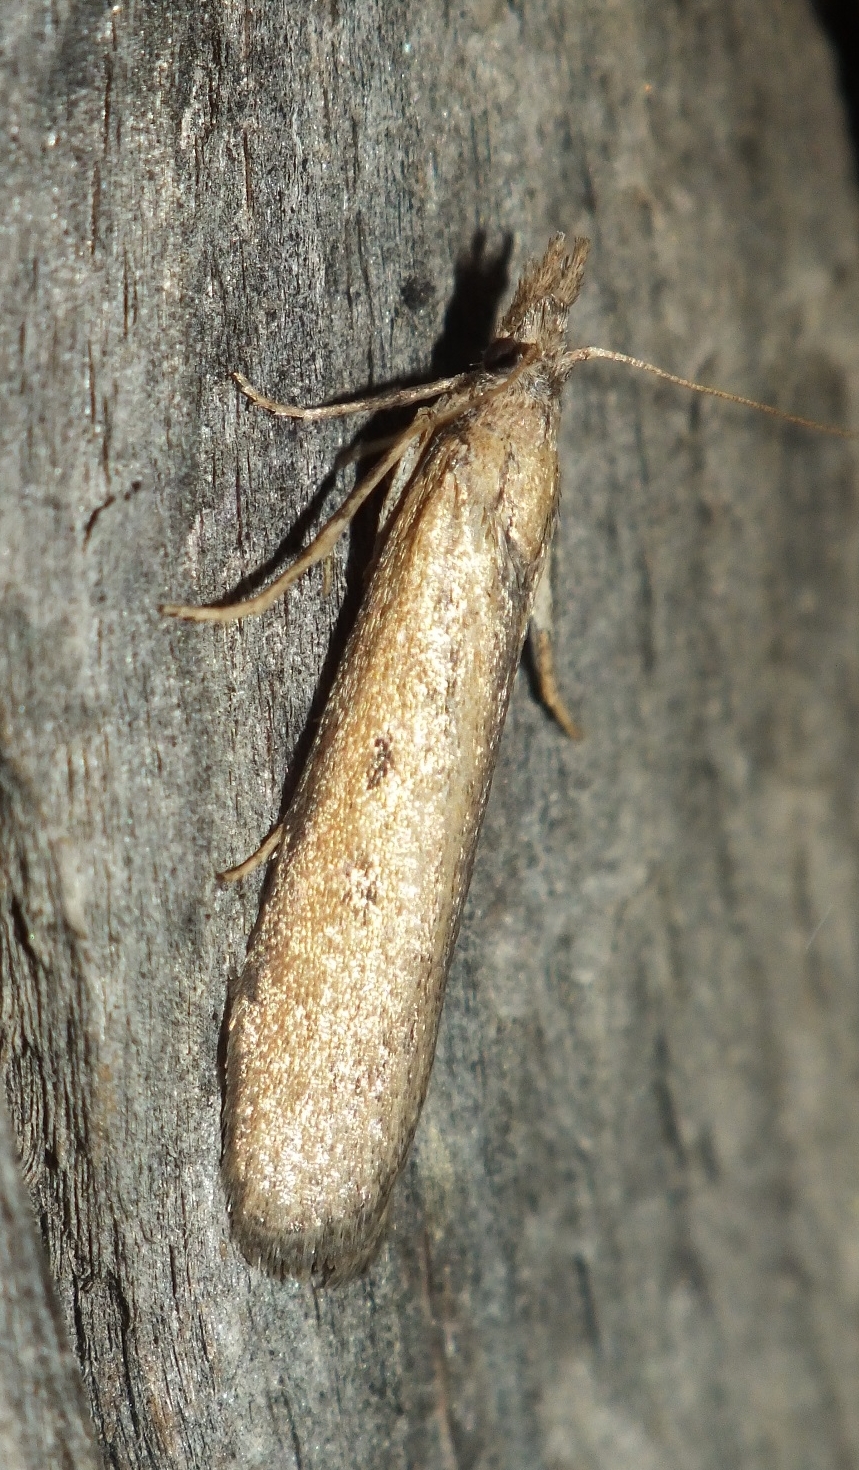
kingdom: Animalia
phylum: Arthropoda
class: Insecta
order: Lepidoptera
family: Pyralidae
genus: Aphomia
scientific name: Aphomia zelleri
